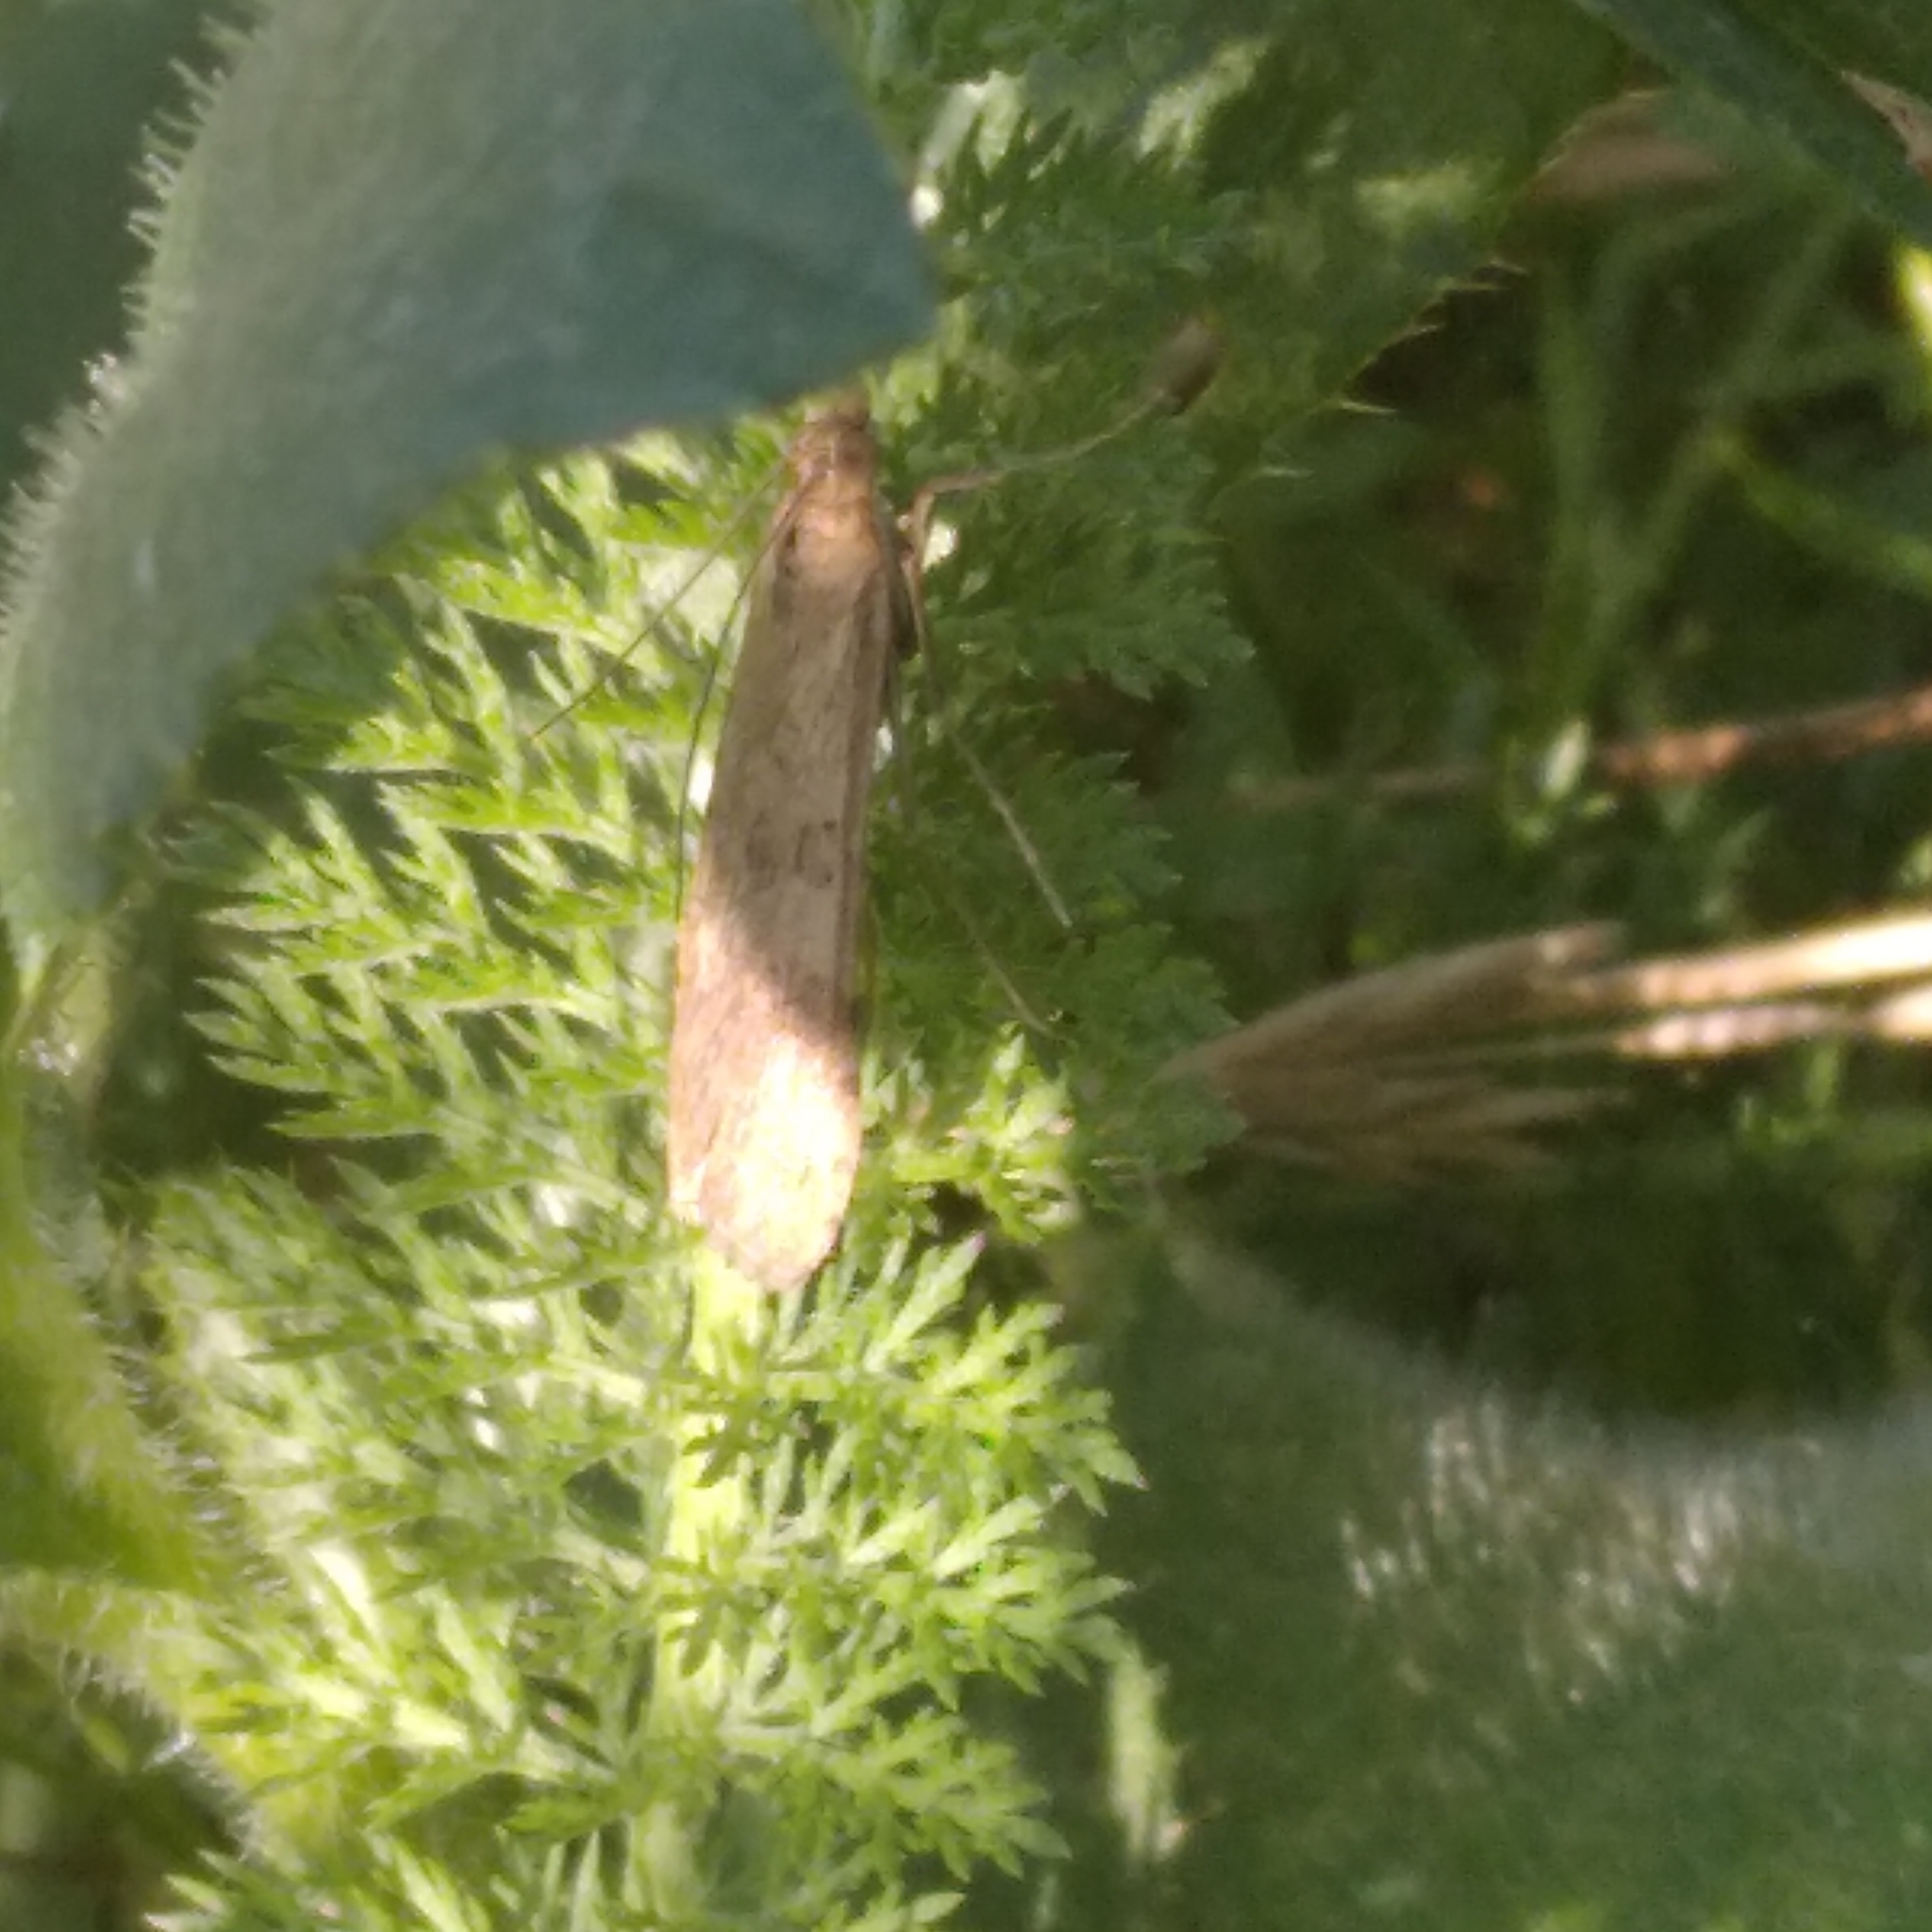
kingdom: Animalia
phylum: Arthropoda
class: Insecta
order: Lepidoptera
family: Crambidae
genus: Nomophila
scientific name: Nomophila noctuella
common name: Rush veneer
